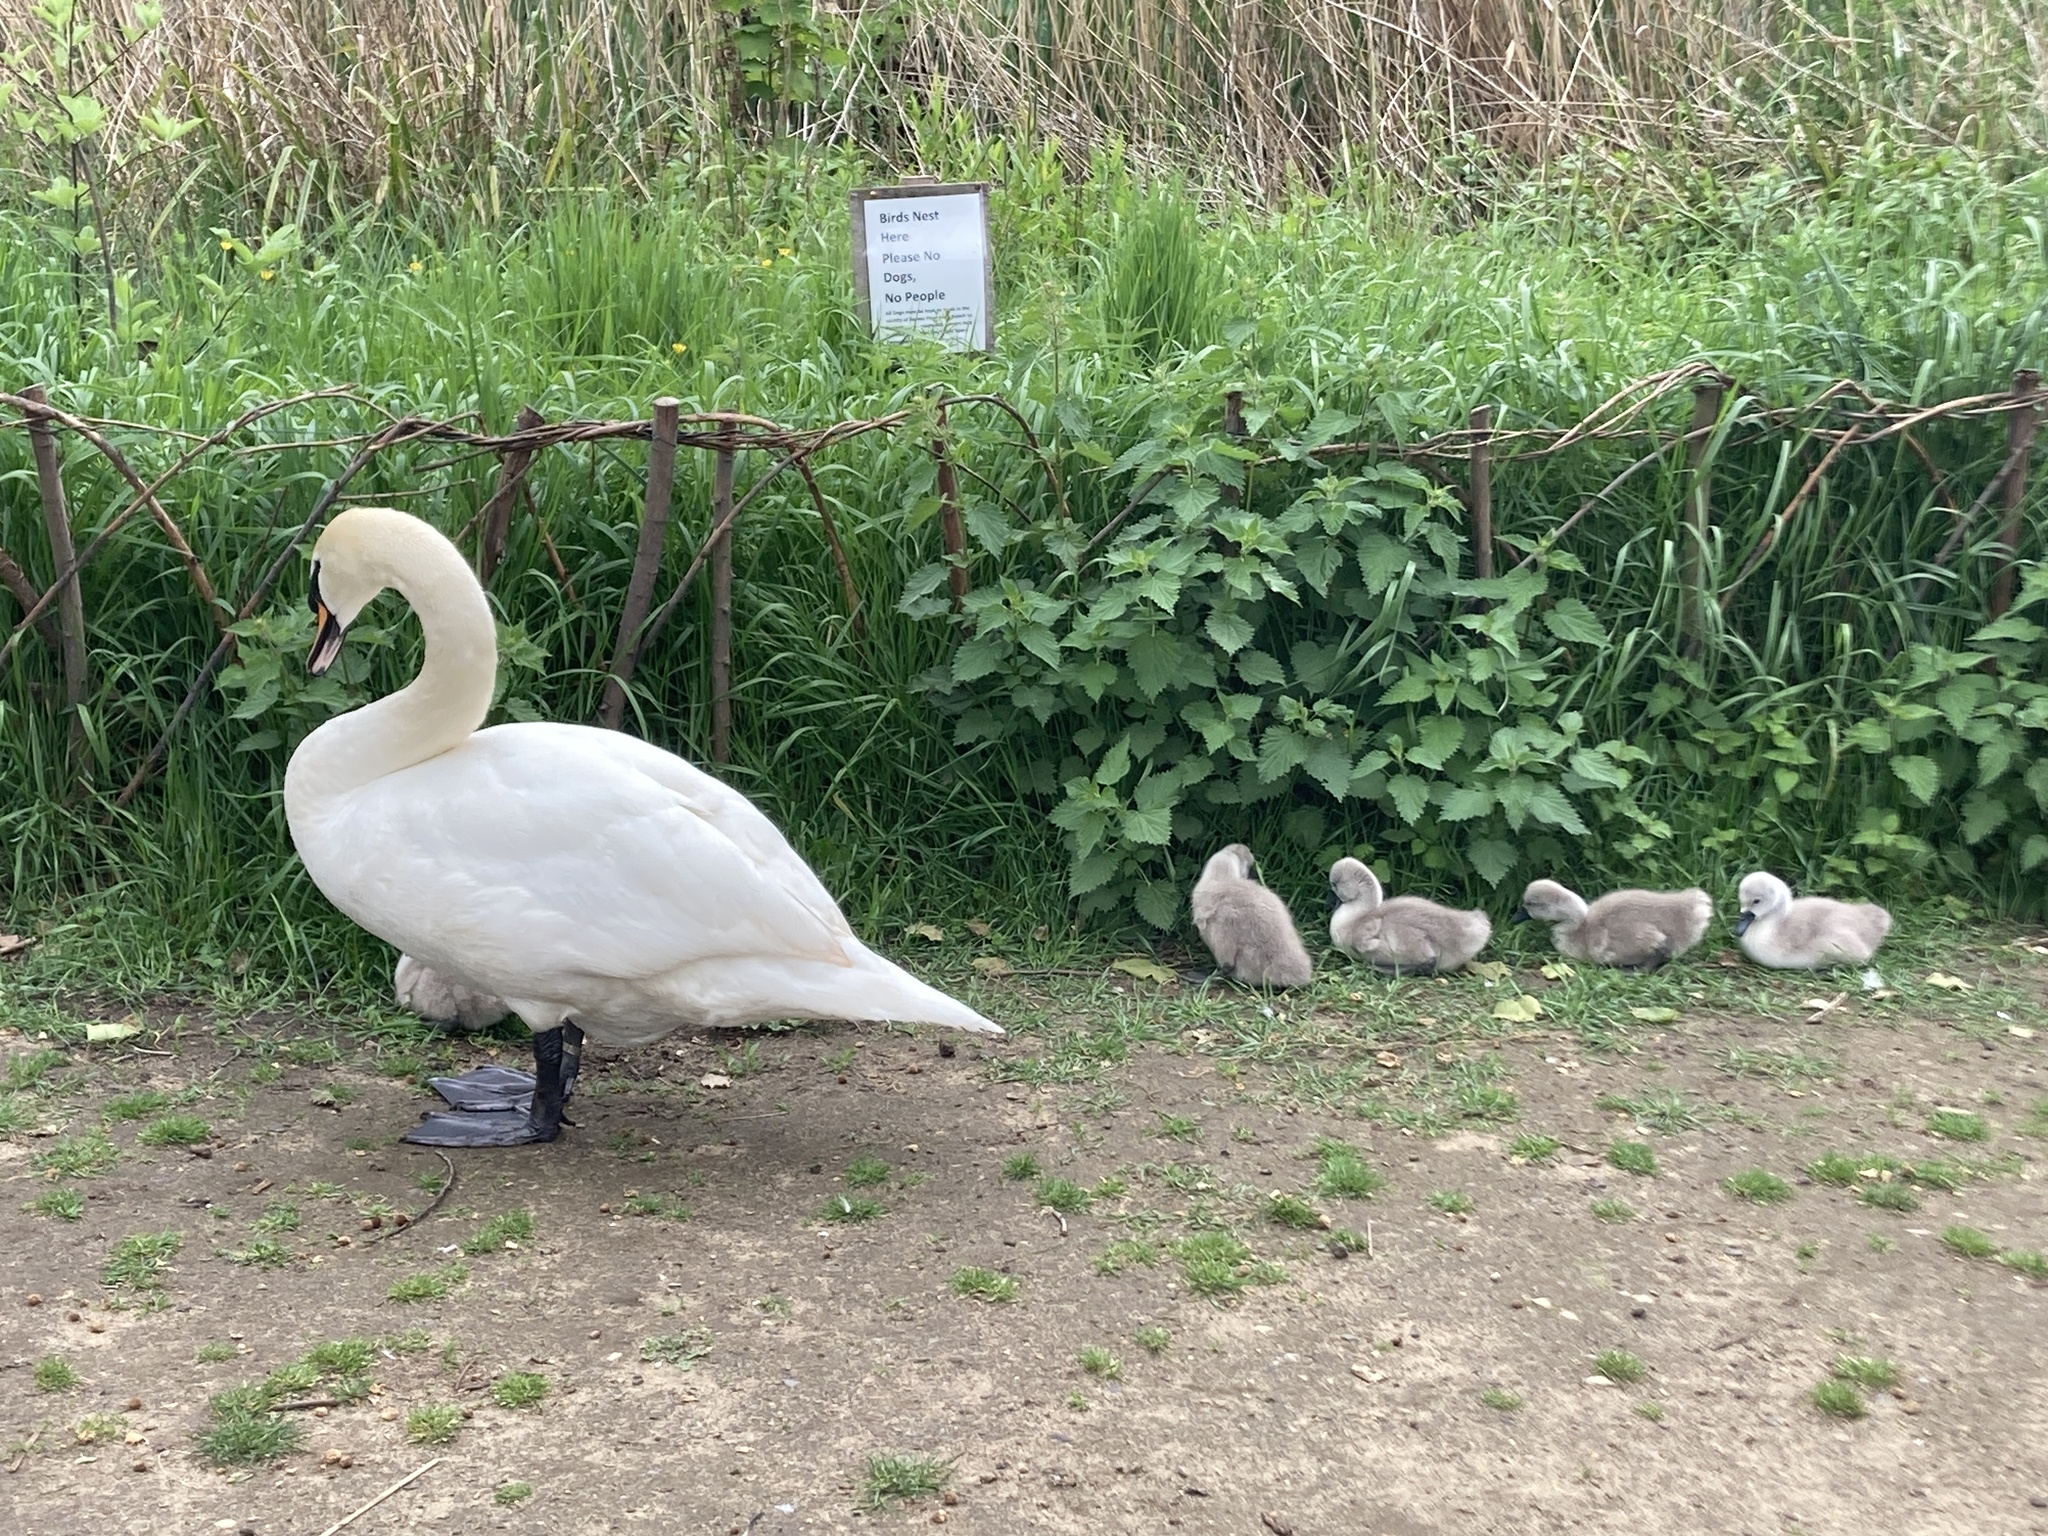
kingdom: Animalia
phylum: Chordata
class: Aves
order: Anseriformes
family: Anatidae
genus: Cygnus
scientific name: Cygnus olor
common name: Mute swan
